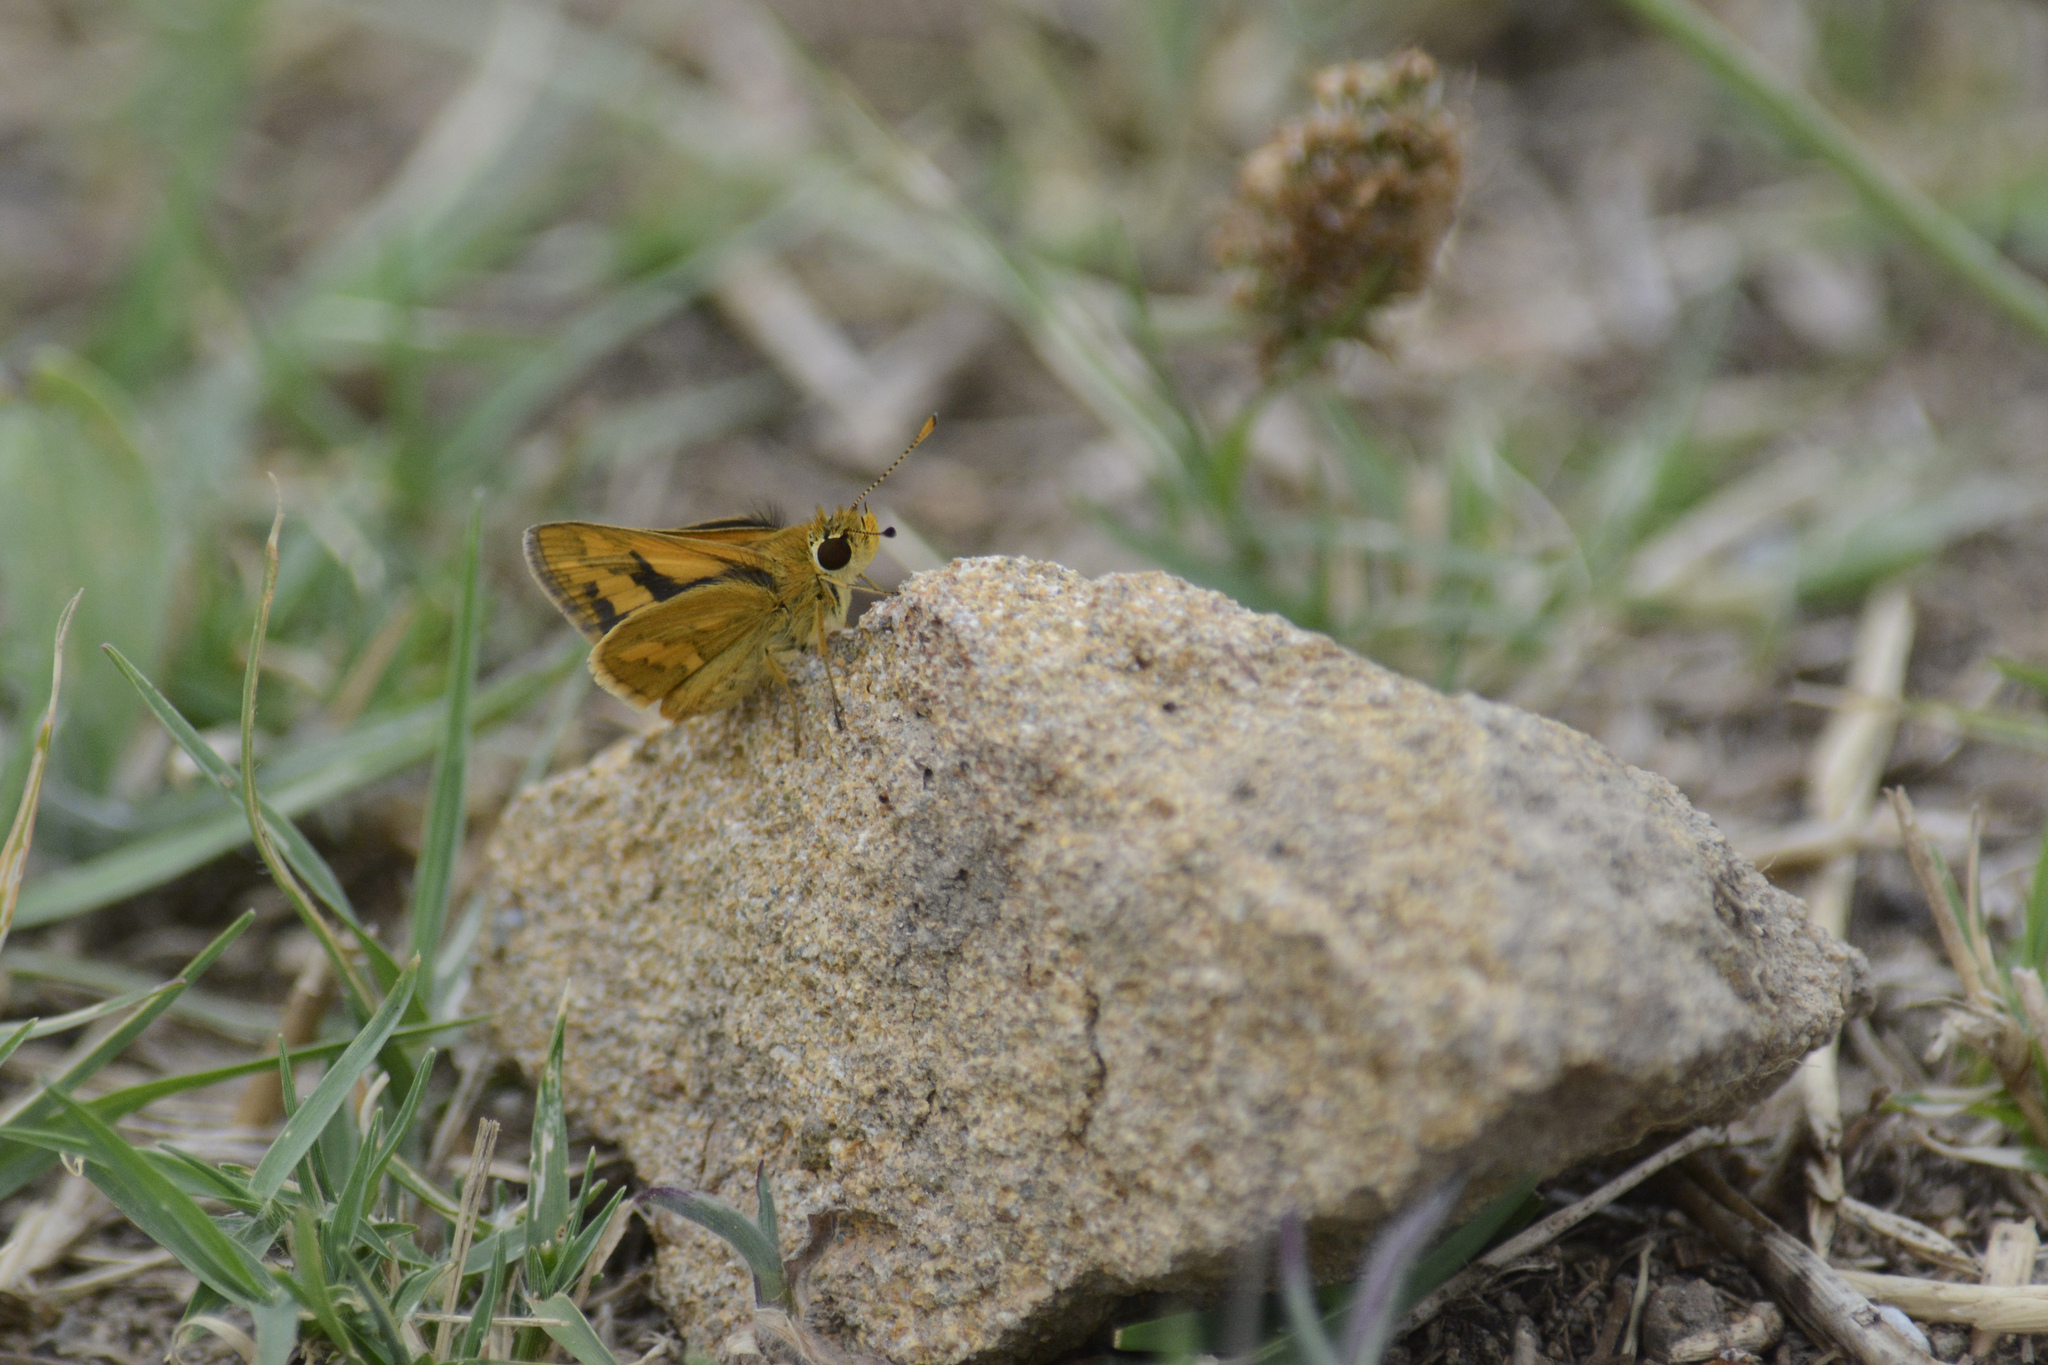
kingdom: Animalia
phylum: Arthropoda
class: Insecta
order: Lepidoptera
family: Hesperiidae
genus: Ocybadistes
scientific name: Ocybadistes walkeri
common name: Yellow-banded dart
